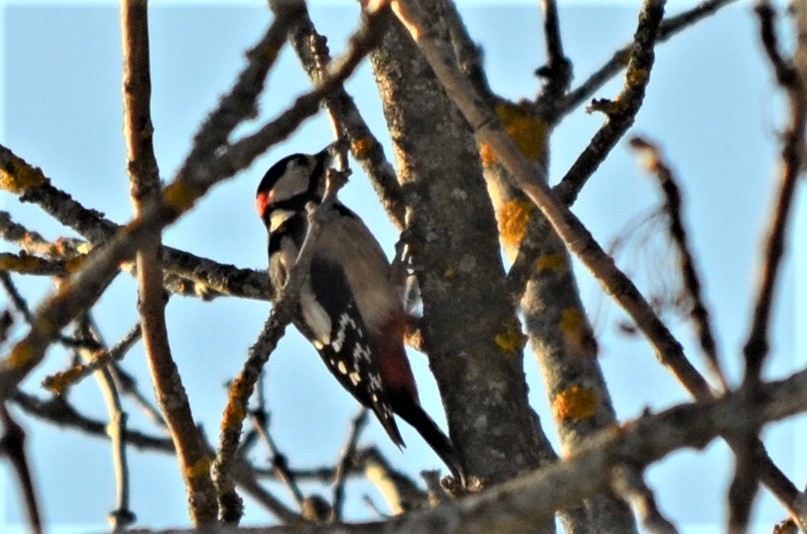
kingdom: Animalia
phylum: Chordata
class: Aves
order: Piciformes
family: Picidae
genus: Dendrocopos
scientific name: Dendrocopos major
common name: Great spotted woodpecker
